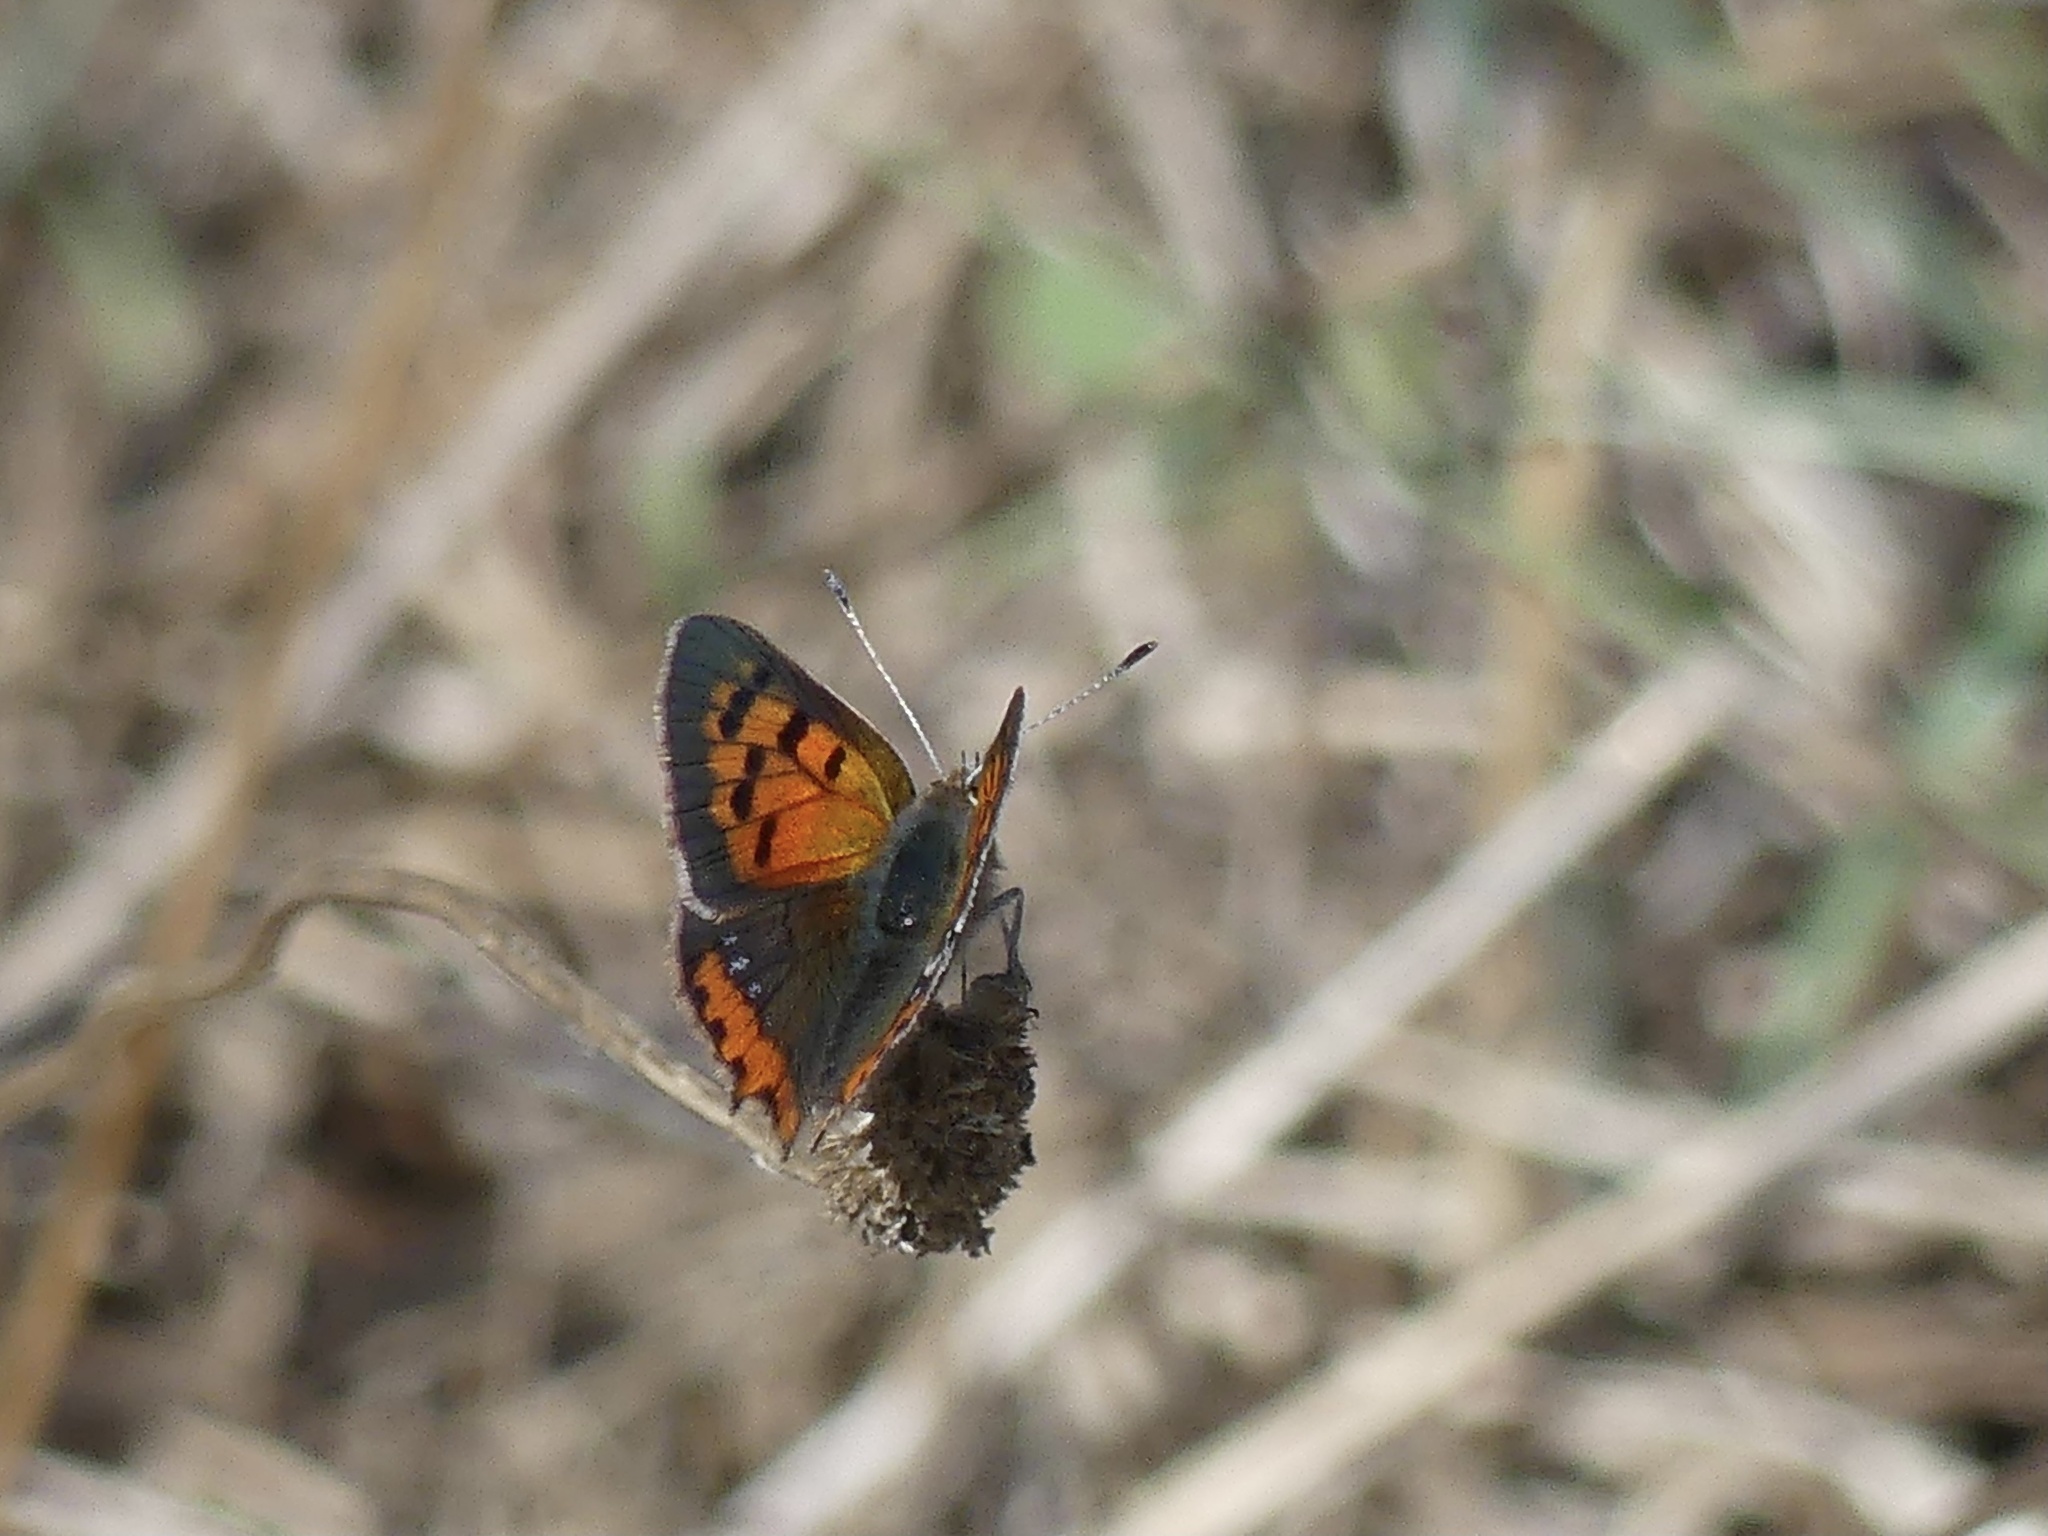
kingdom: Animalia
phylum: Arthropoda
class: Insecta
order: Lepidoptera
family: Lycaenidae
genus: Lycaena
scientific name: Lycaena phlaeas
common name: Small copper
